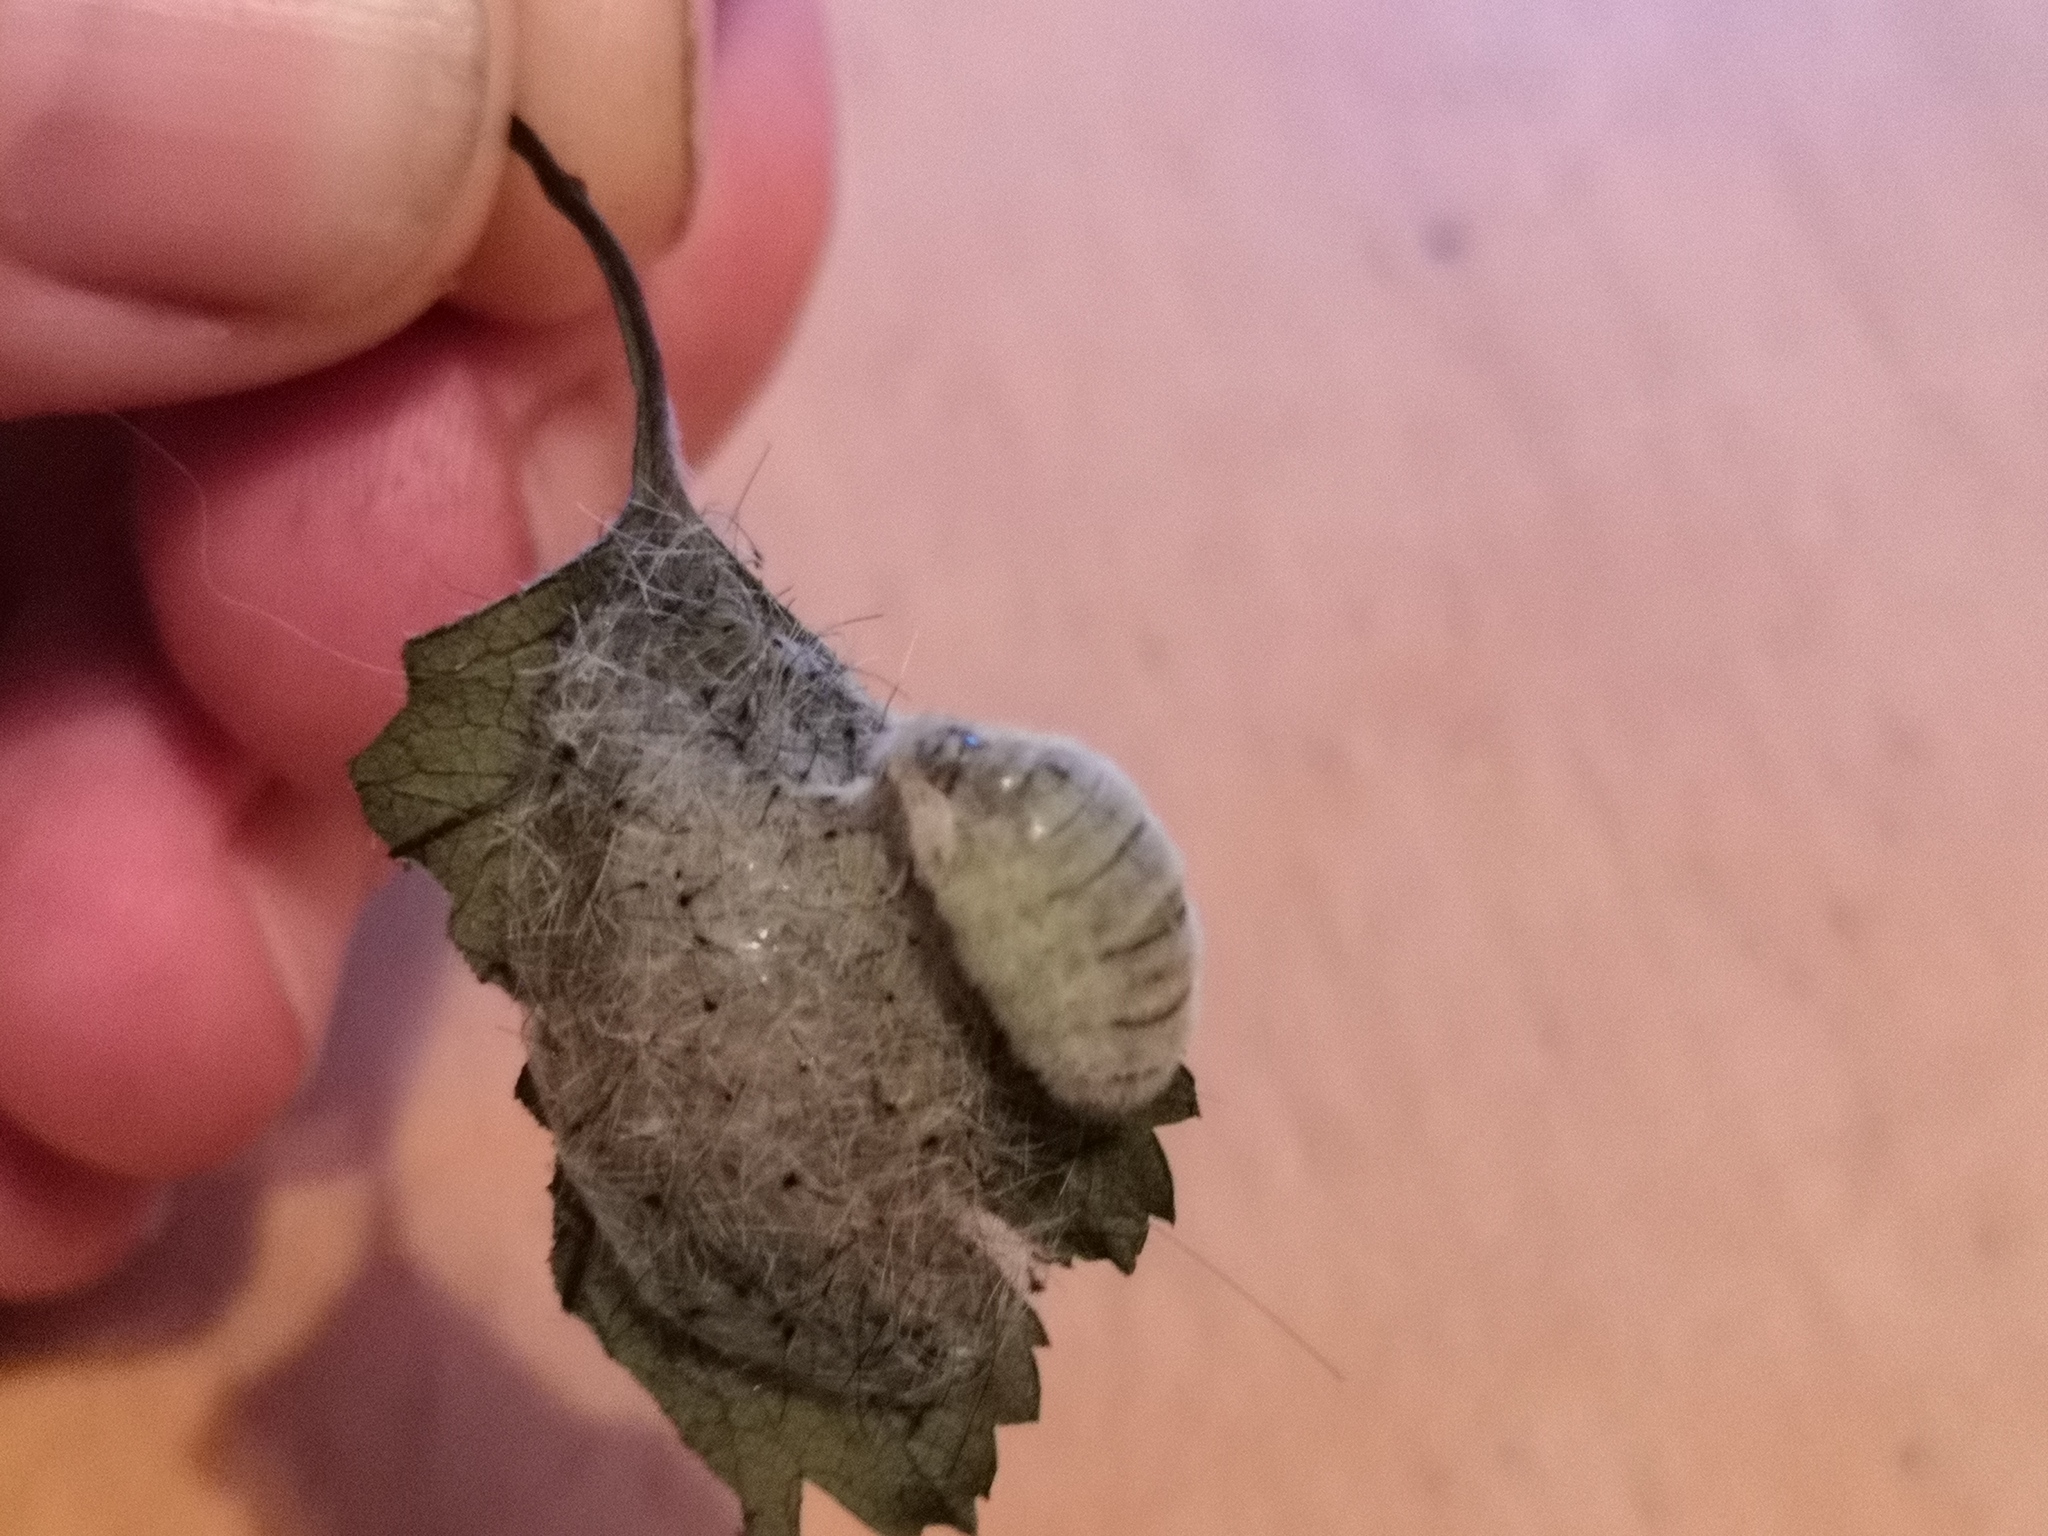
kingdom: Animalia
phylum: Arthropoda
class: Insecta
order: Lepidoptera
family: Erebidae
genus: Orgyia
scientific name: Orgyia antiqua
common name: Vapourer
